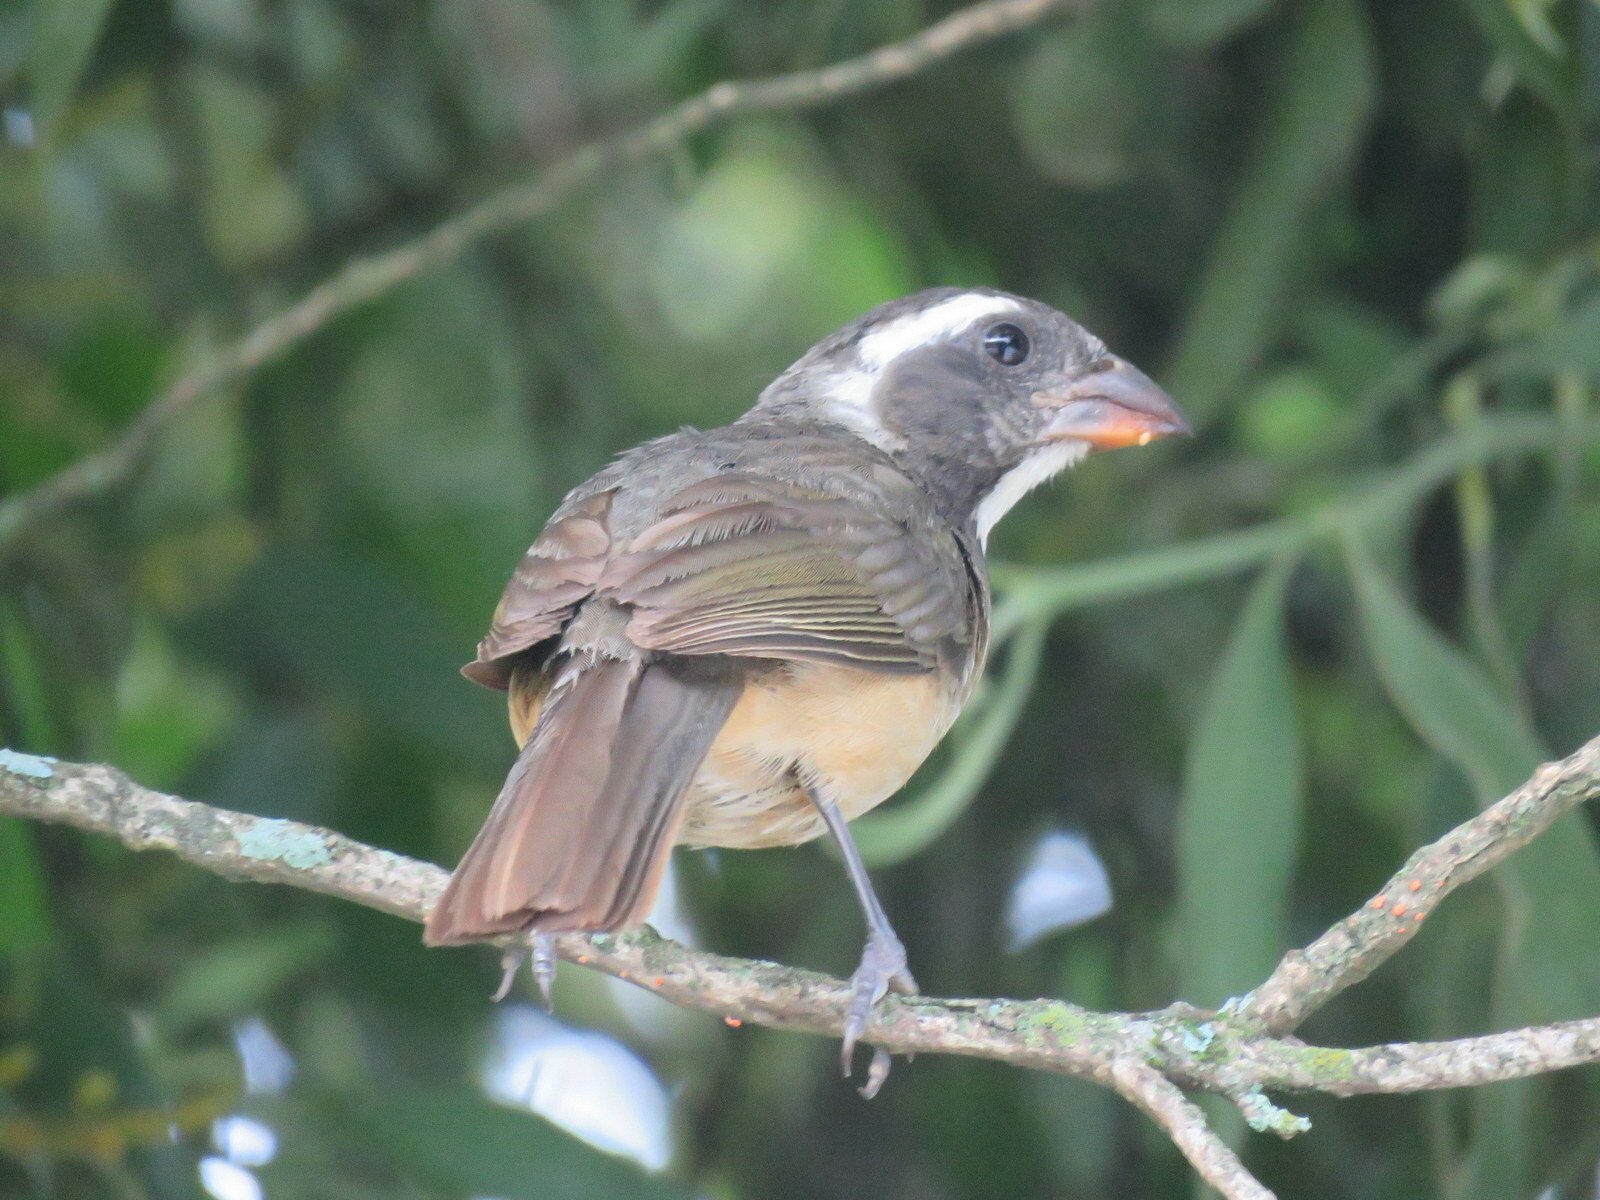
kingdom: Animalia
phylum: Chordata
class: Aves
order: Passeriformes
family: Thraupidae
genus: Saltator
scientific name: Saltator aurantiirostris
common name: Golden-billed saltator
